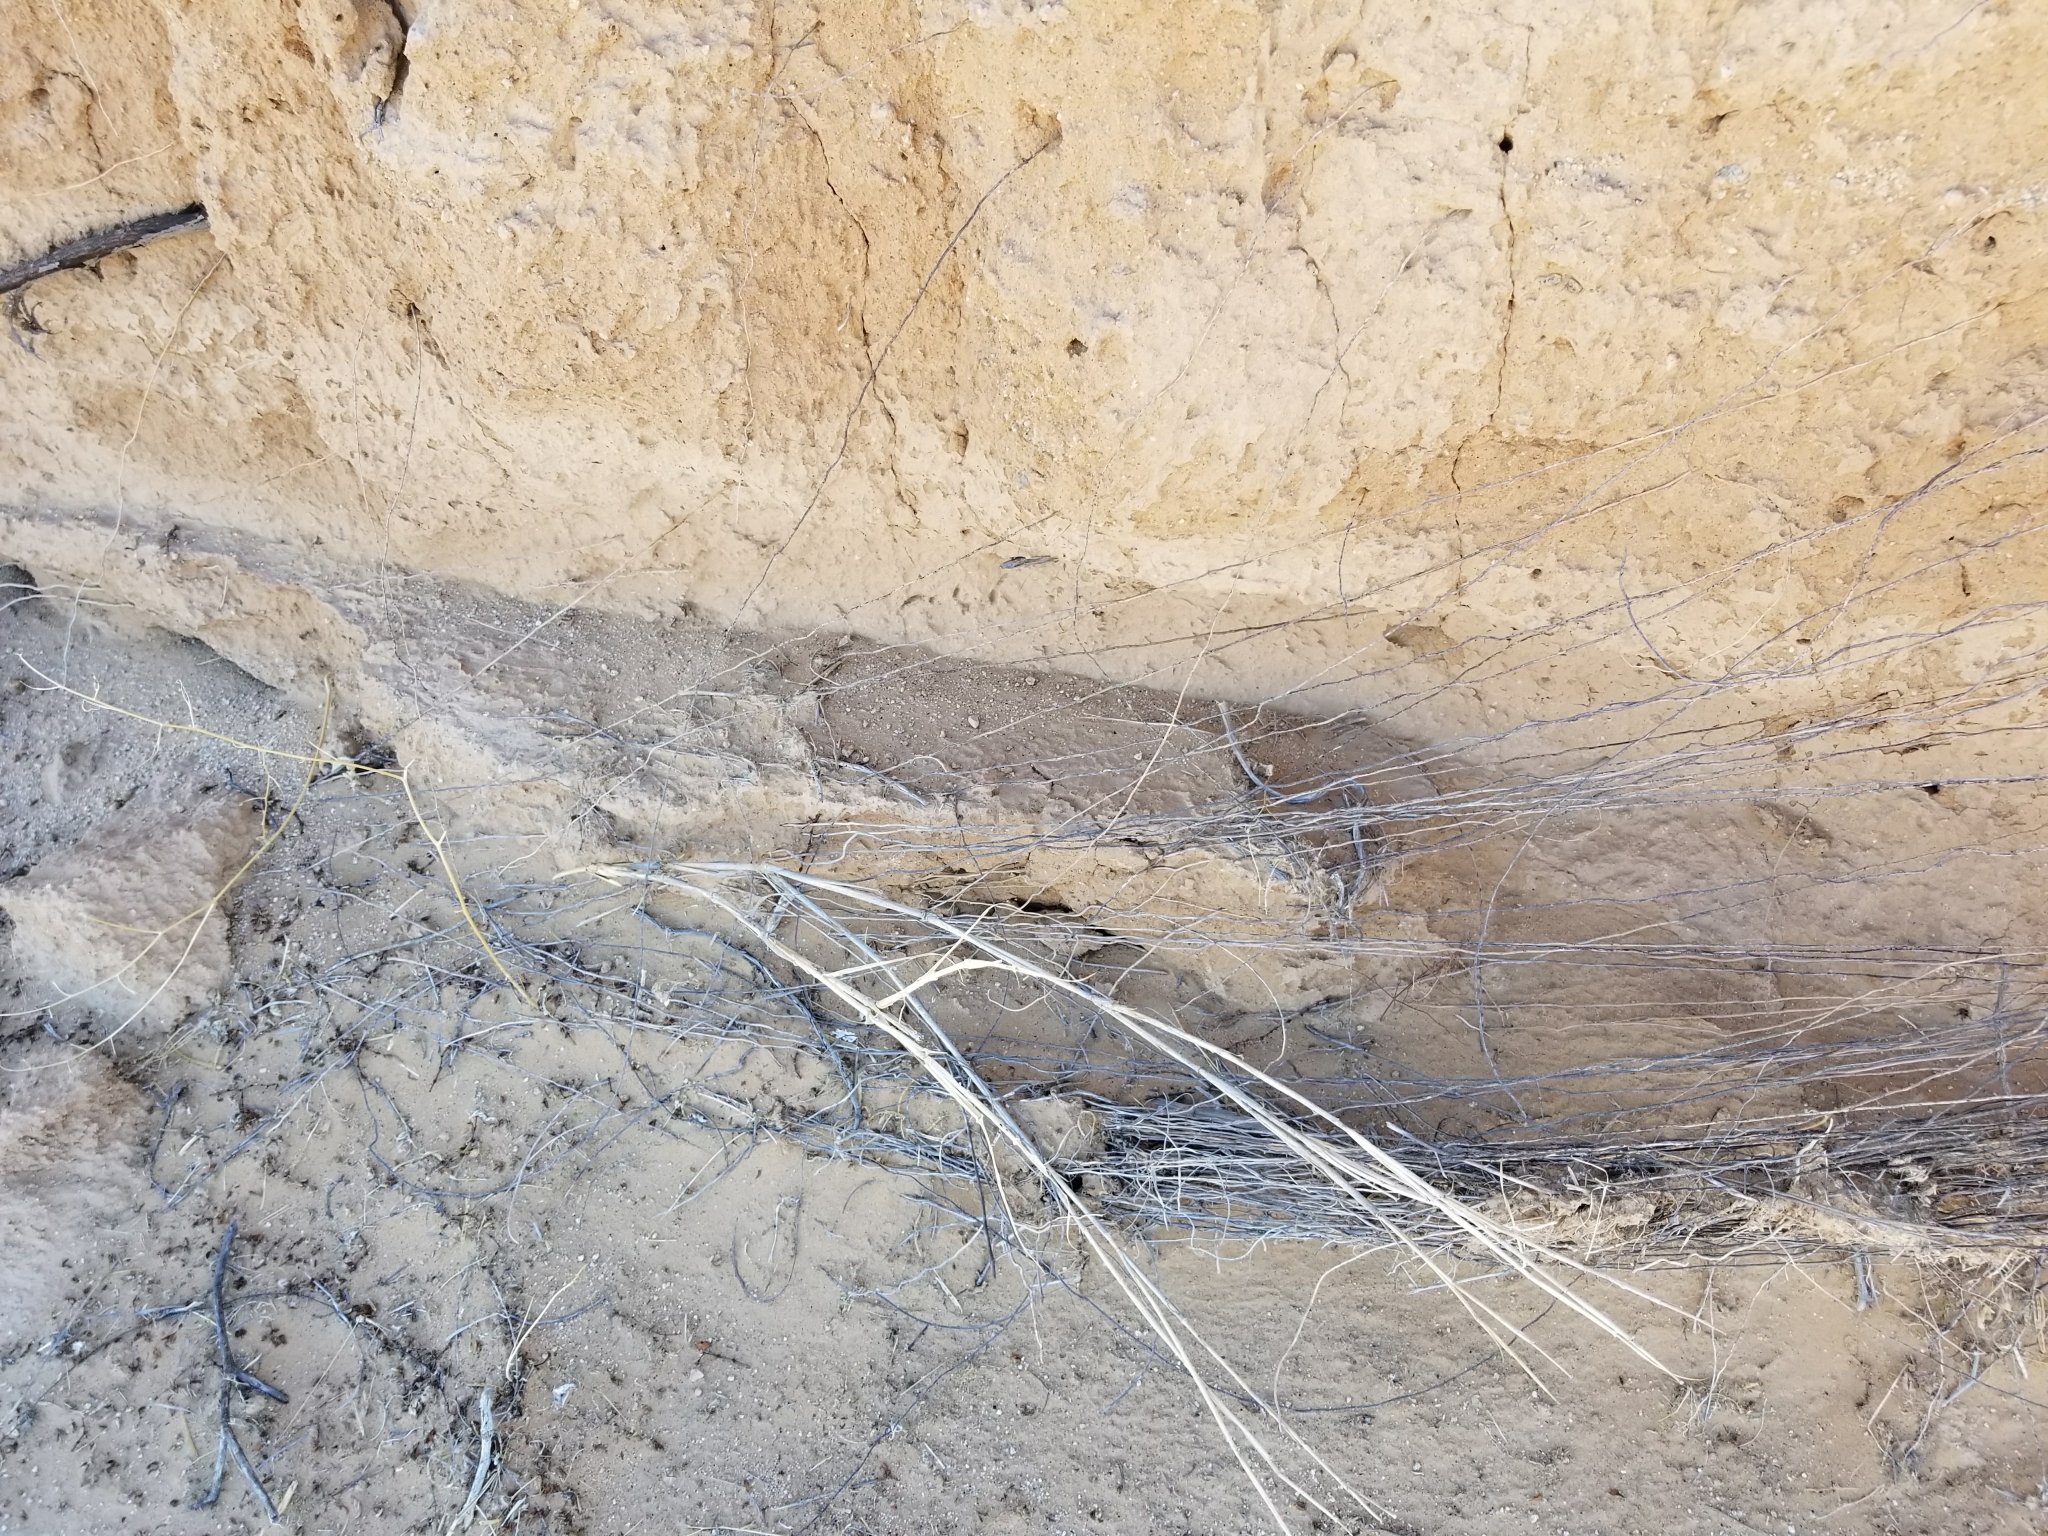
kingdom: Plantae
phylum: Tracheophyta
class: Liliopsida
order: Poales
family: Poaceae
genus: Hilaria
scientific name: Hilaria rigida
